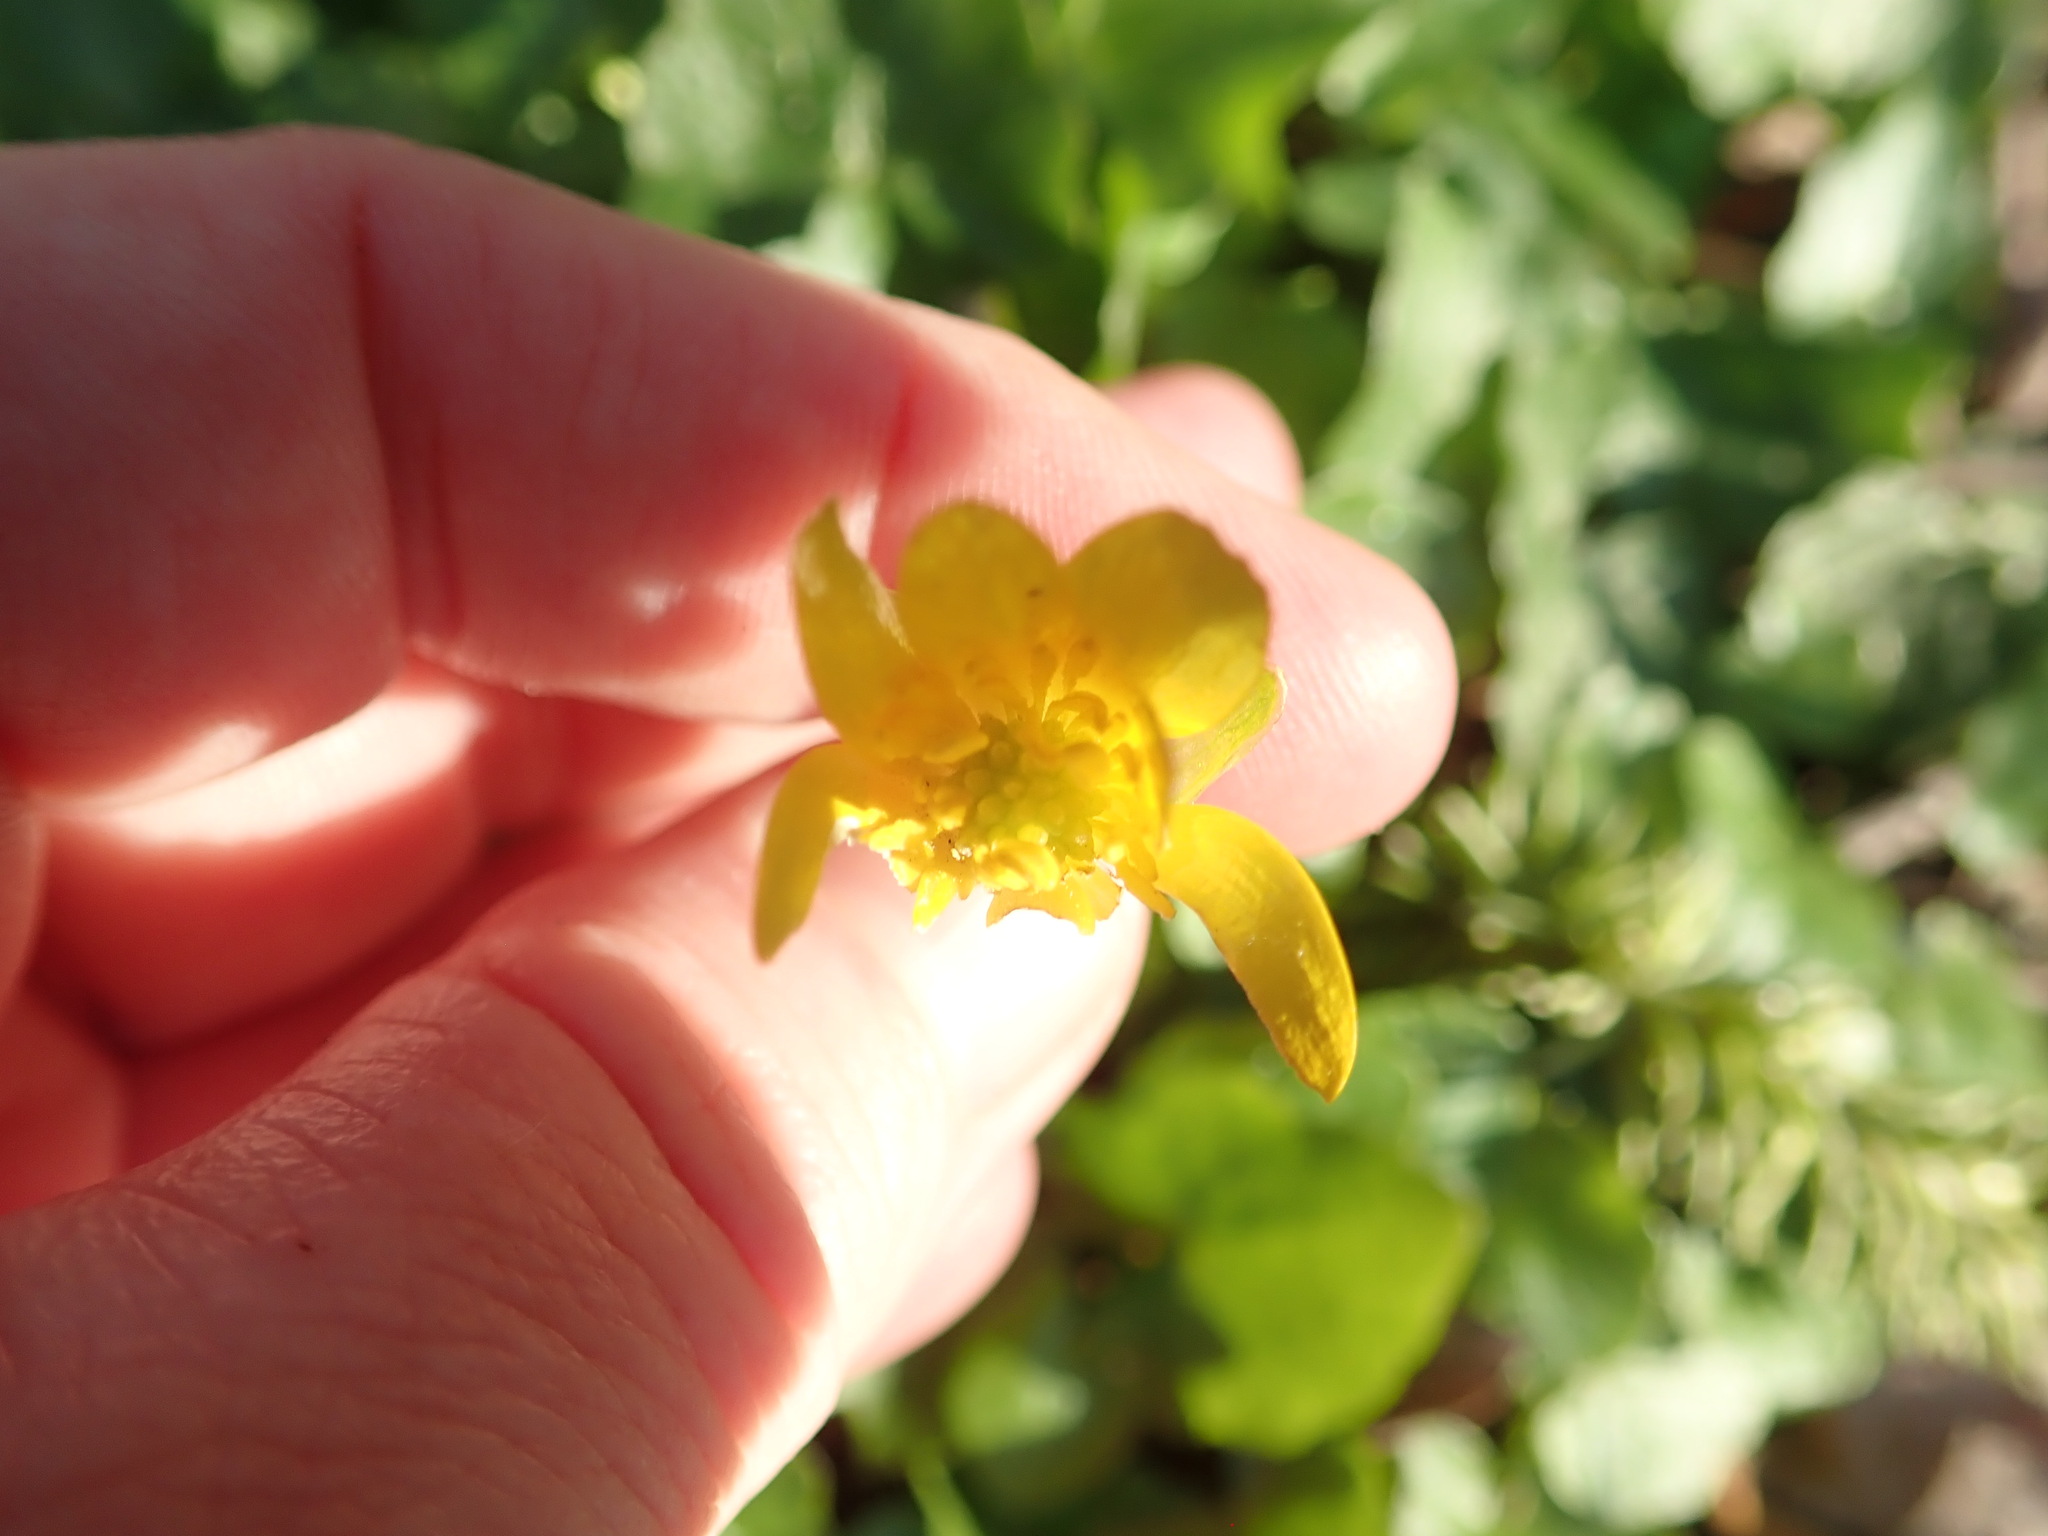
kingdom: Plantae
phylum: Tracheophyta
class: Magnoliopsida
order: Ranunculales
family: Ranunculaceae
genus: Ficaria
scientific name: Ficaria verna
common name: Lesser celandine
